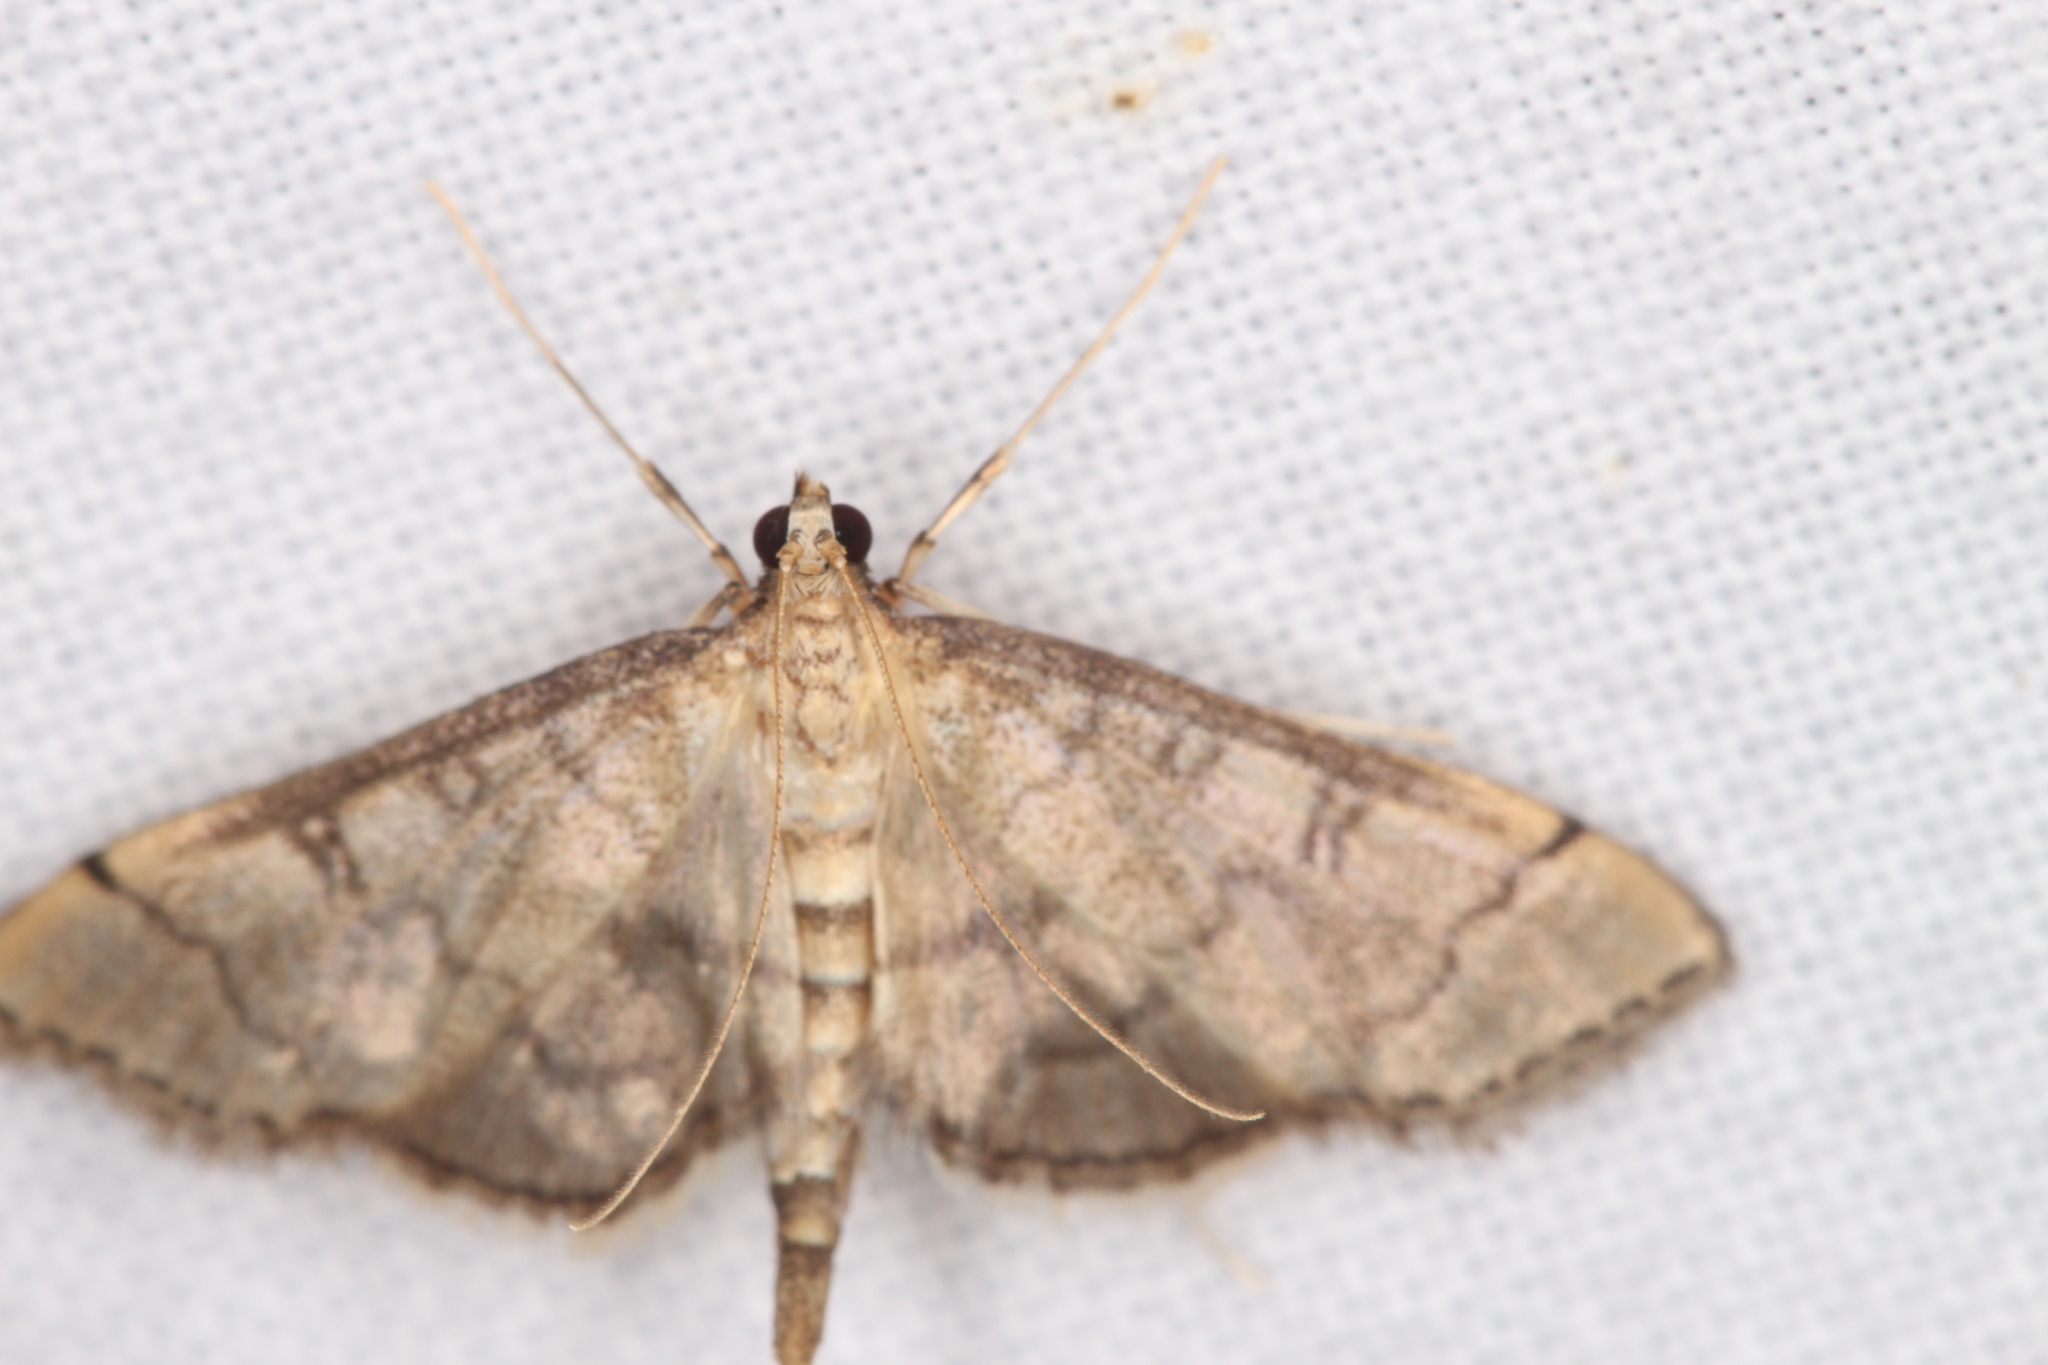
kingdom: Animalia
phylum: Arthropoda
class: Insecta
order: Lepidoptera
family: Crambidae
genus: Lamprosema
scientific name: Lamprosema Blepharomastix ranalis
